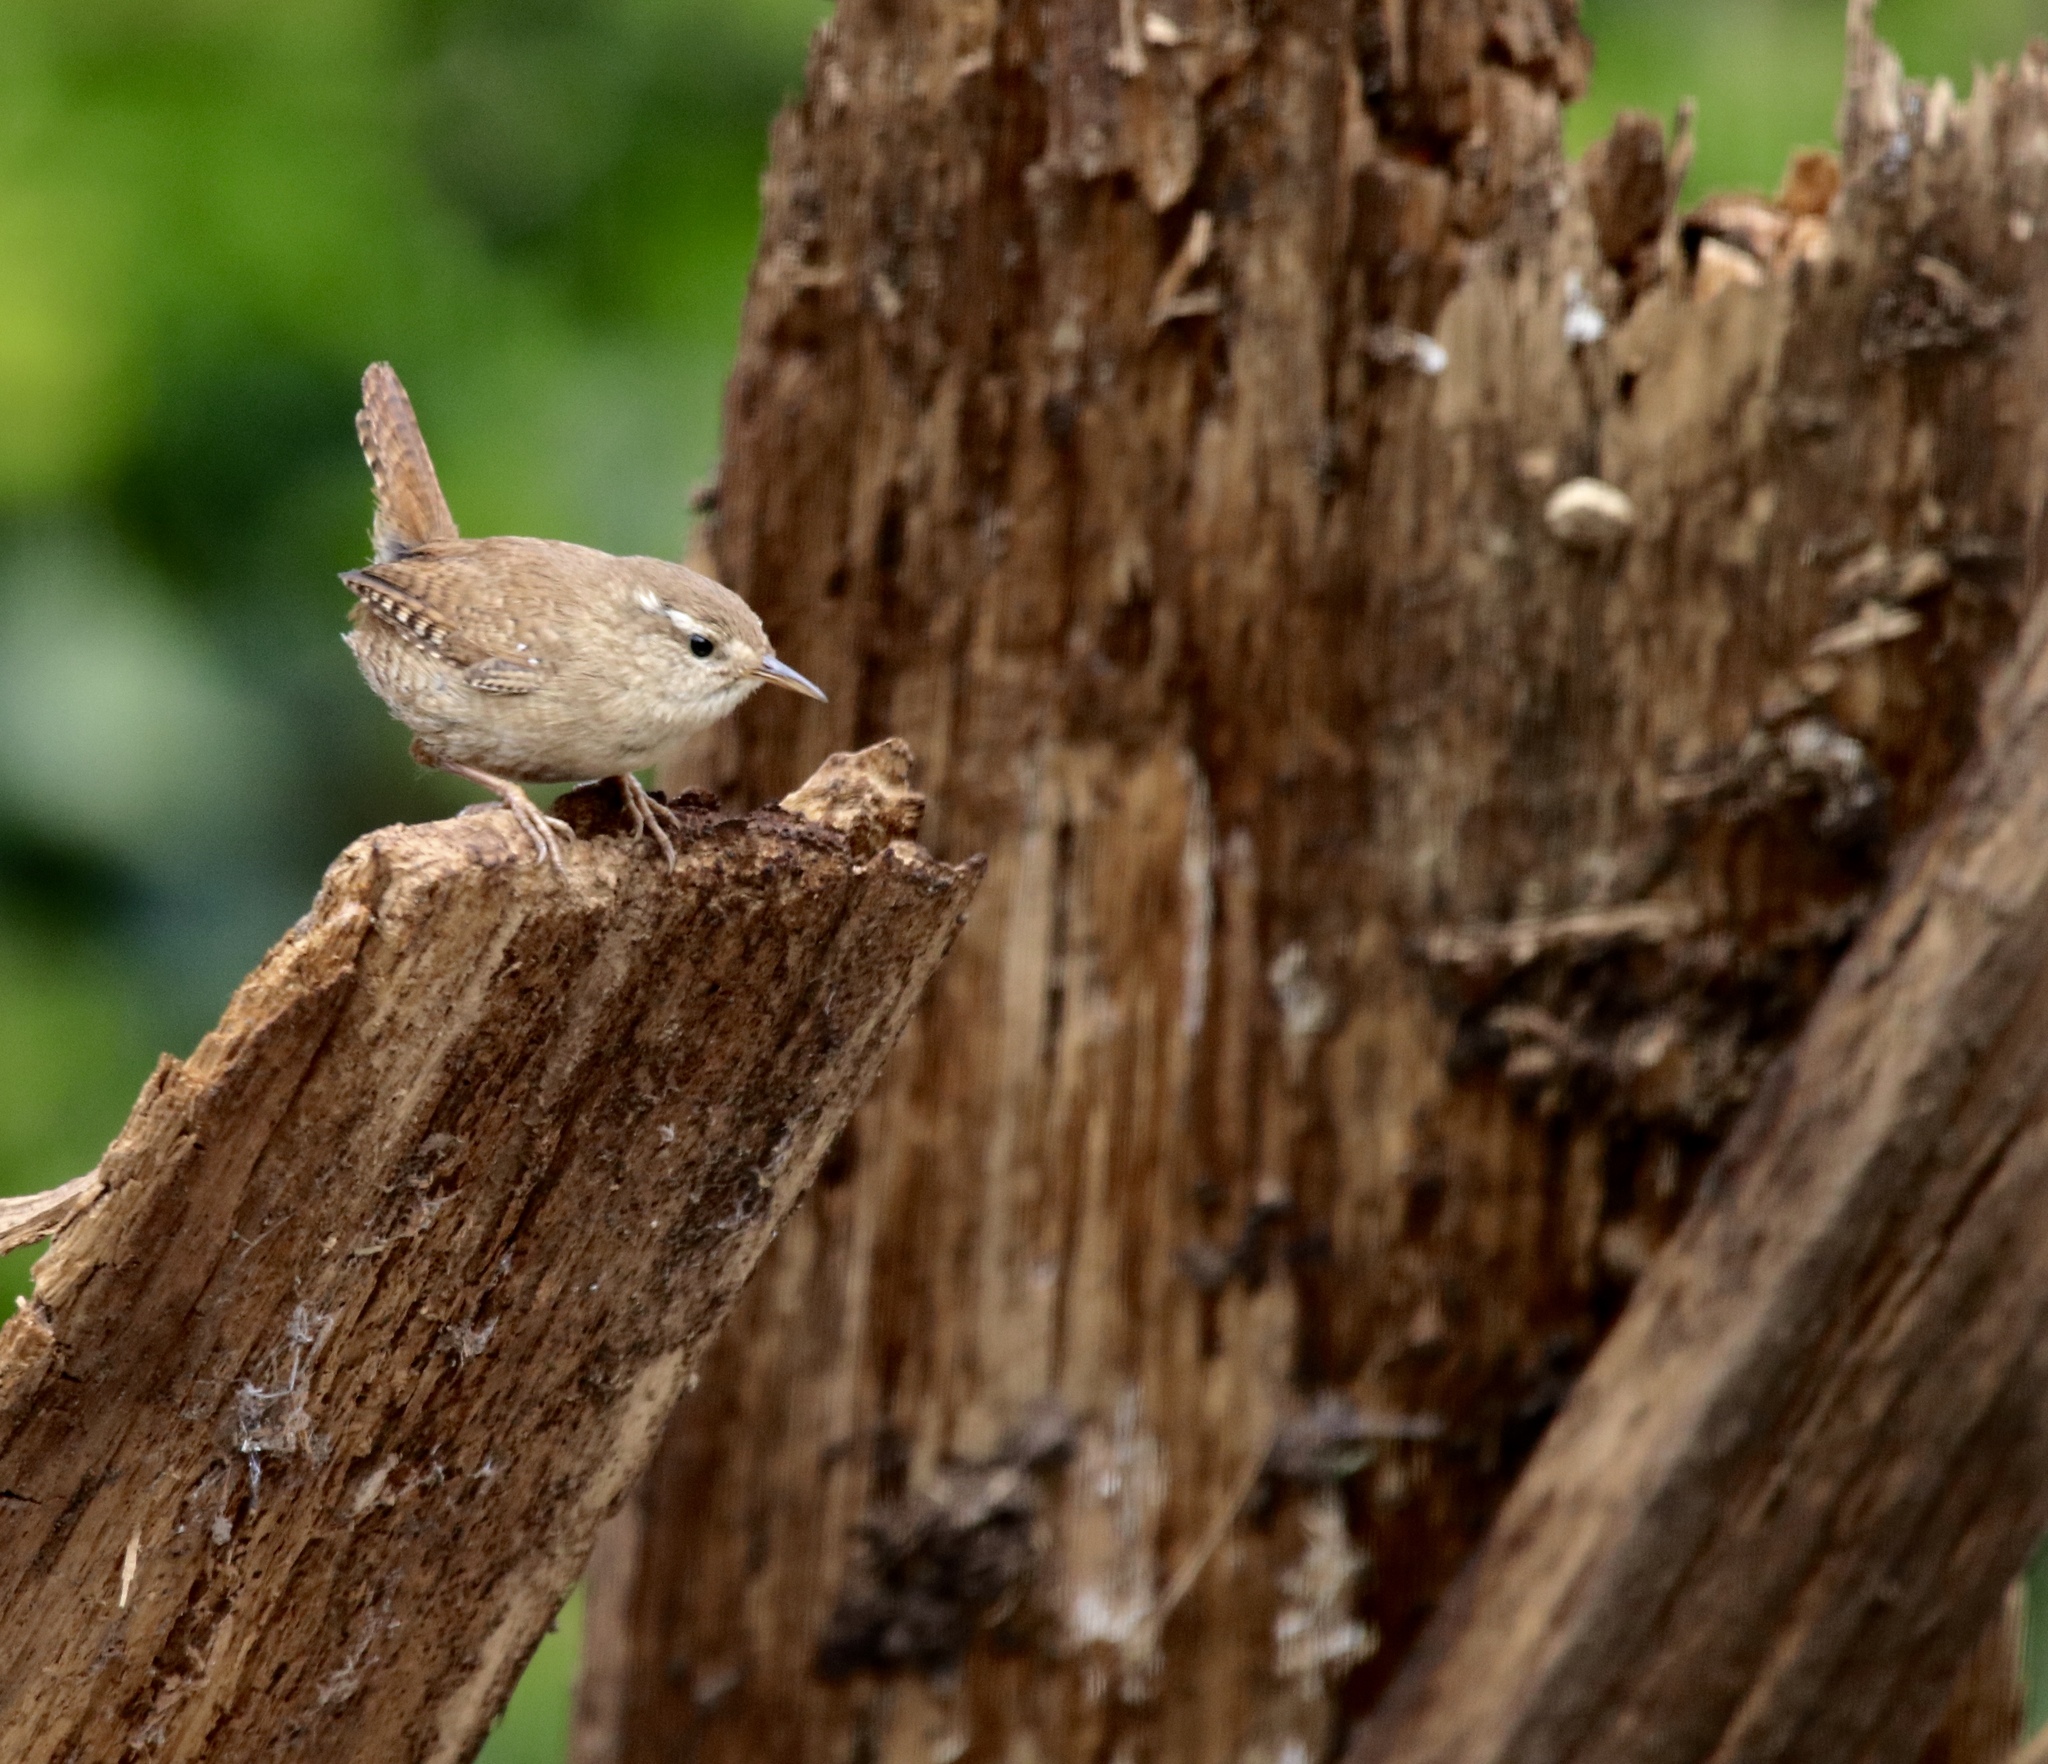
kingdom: Animalia
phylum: Chordata
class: Aves
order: Passeriformes
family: Troglodytidae
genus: Troglodytes
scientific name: Troglodytes troglodytes
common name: Eurasian wren
